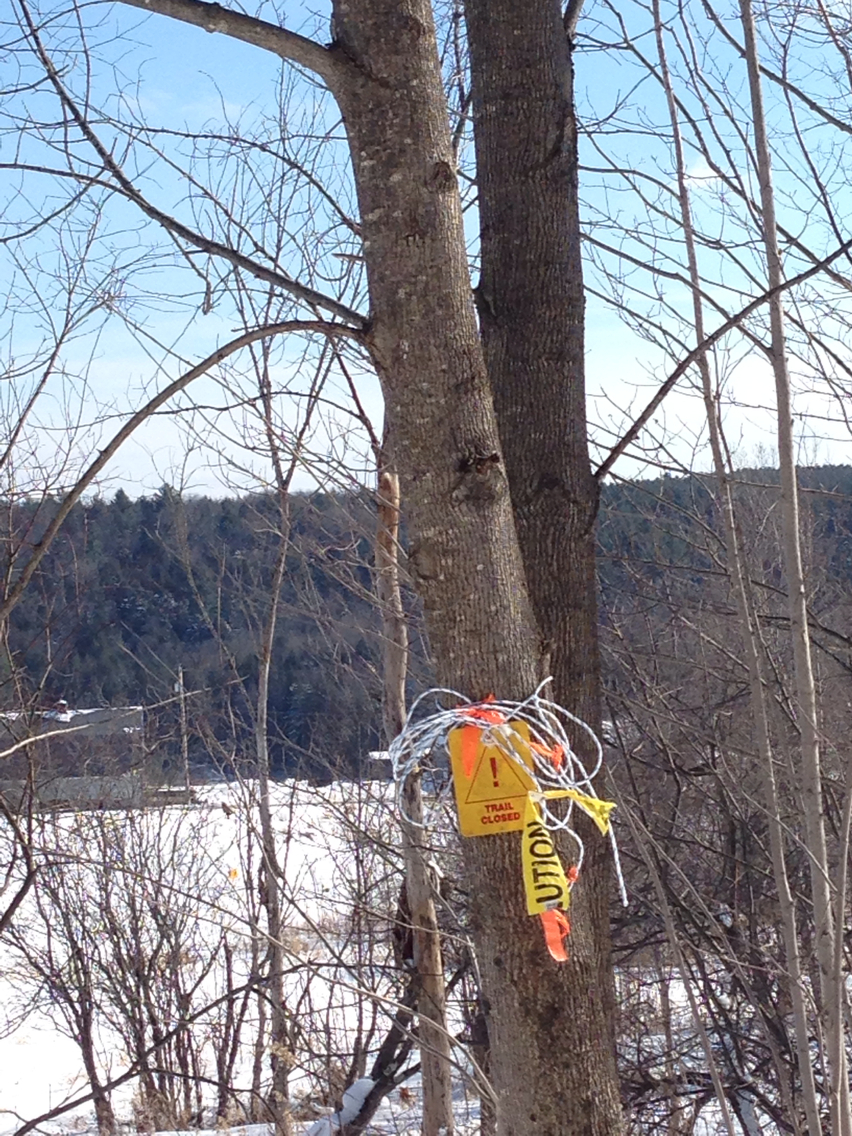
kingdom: Plantae
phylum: Tracheophyta
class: Magnoliopsida
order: Lamiales
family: Oleaceae
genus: Fraxinus
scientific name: Fraxinus americana
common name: White ash
